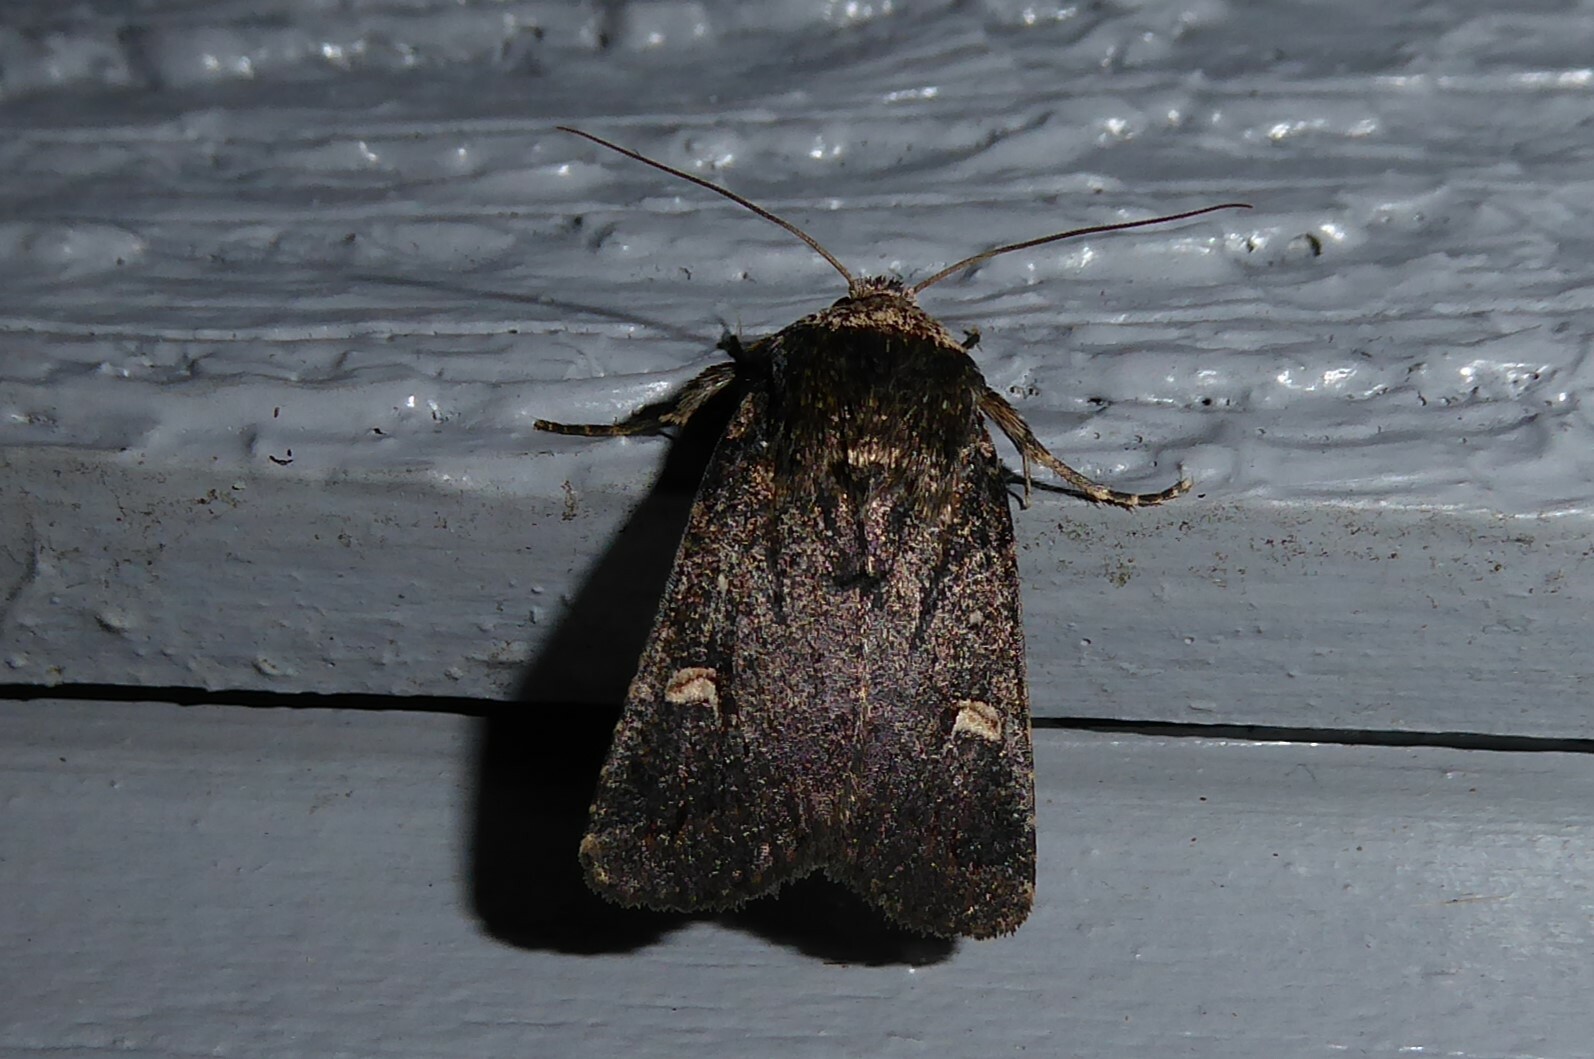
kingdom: Animalia
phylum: Arthropoda
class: Insecta
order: Lepidoptera
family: Noctuidae
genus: Proteuxoa
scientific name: Proteuxoa tetronycha
